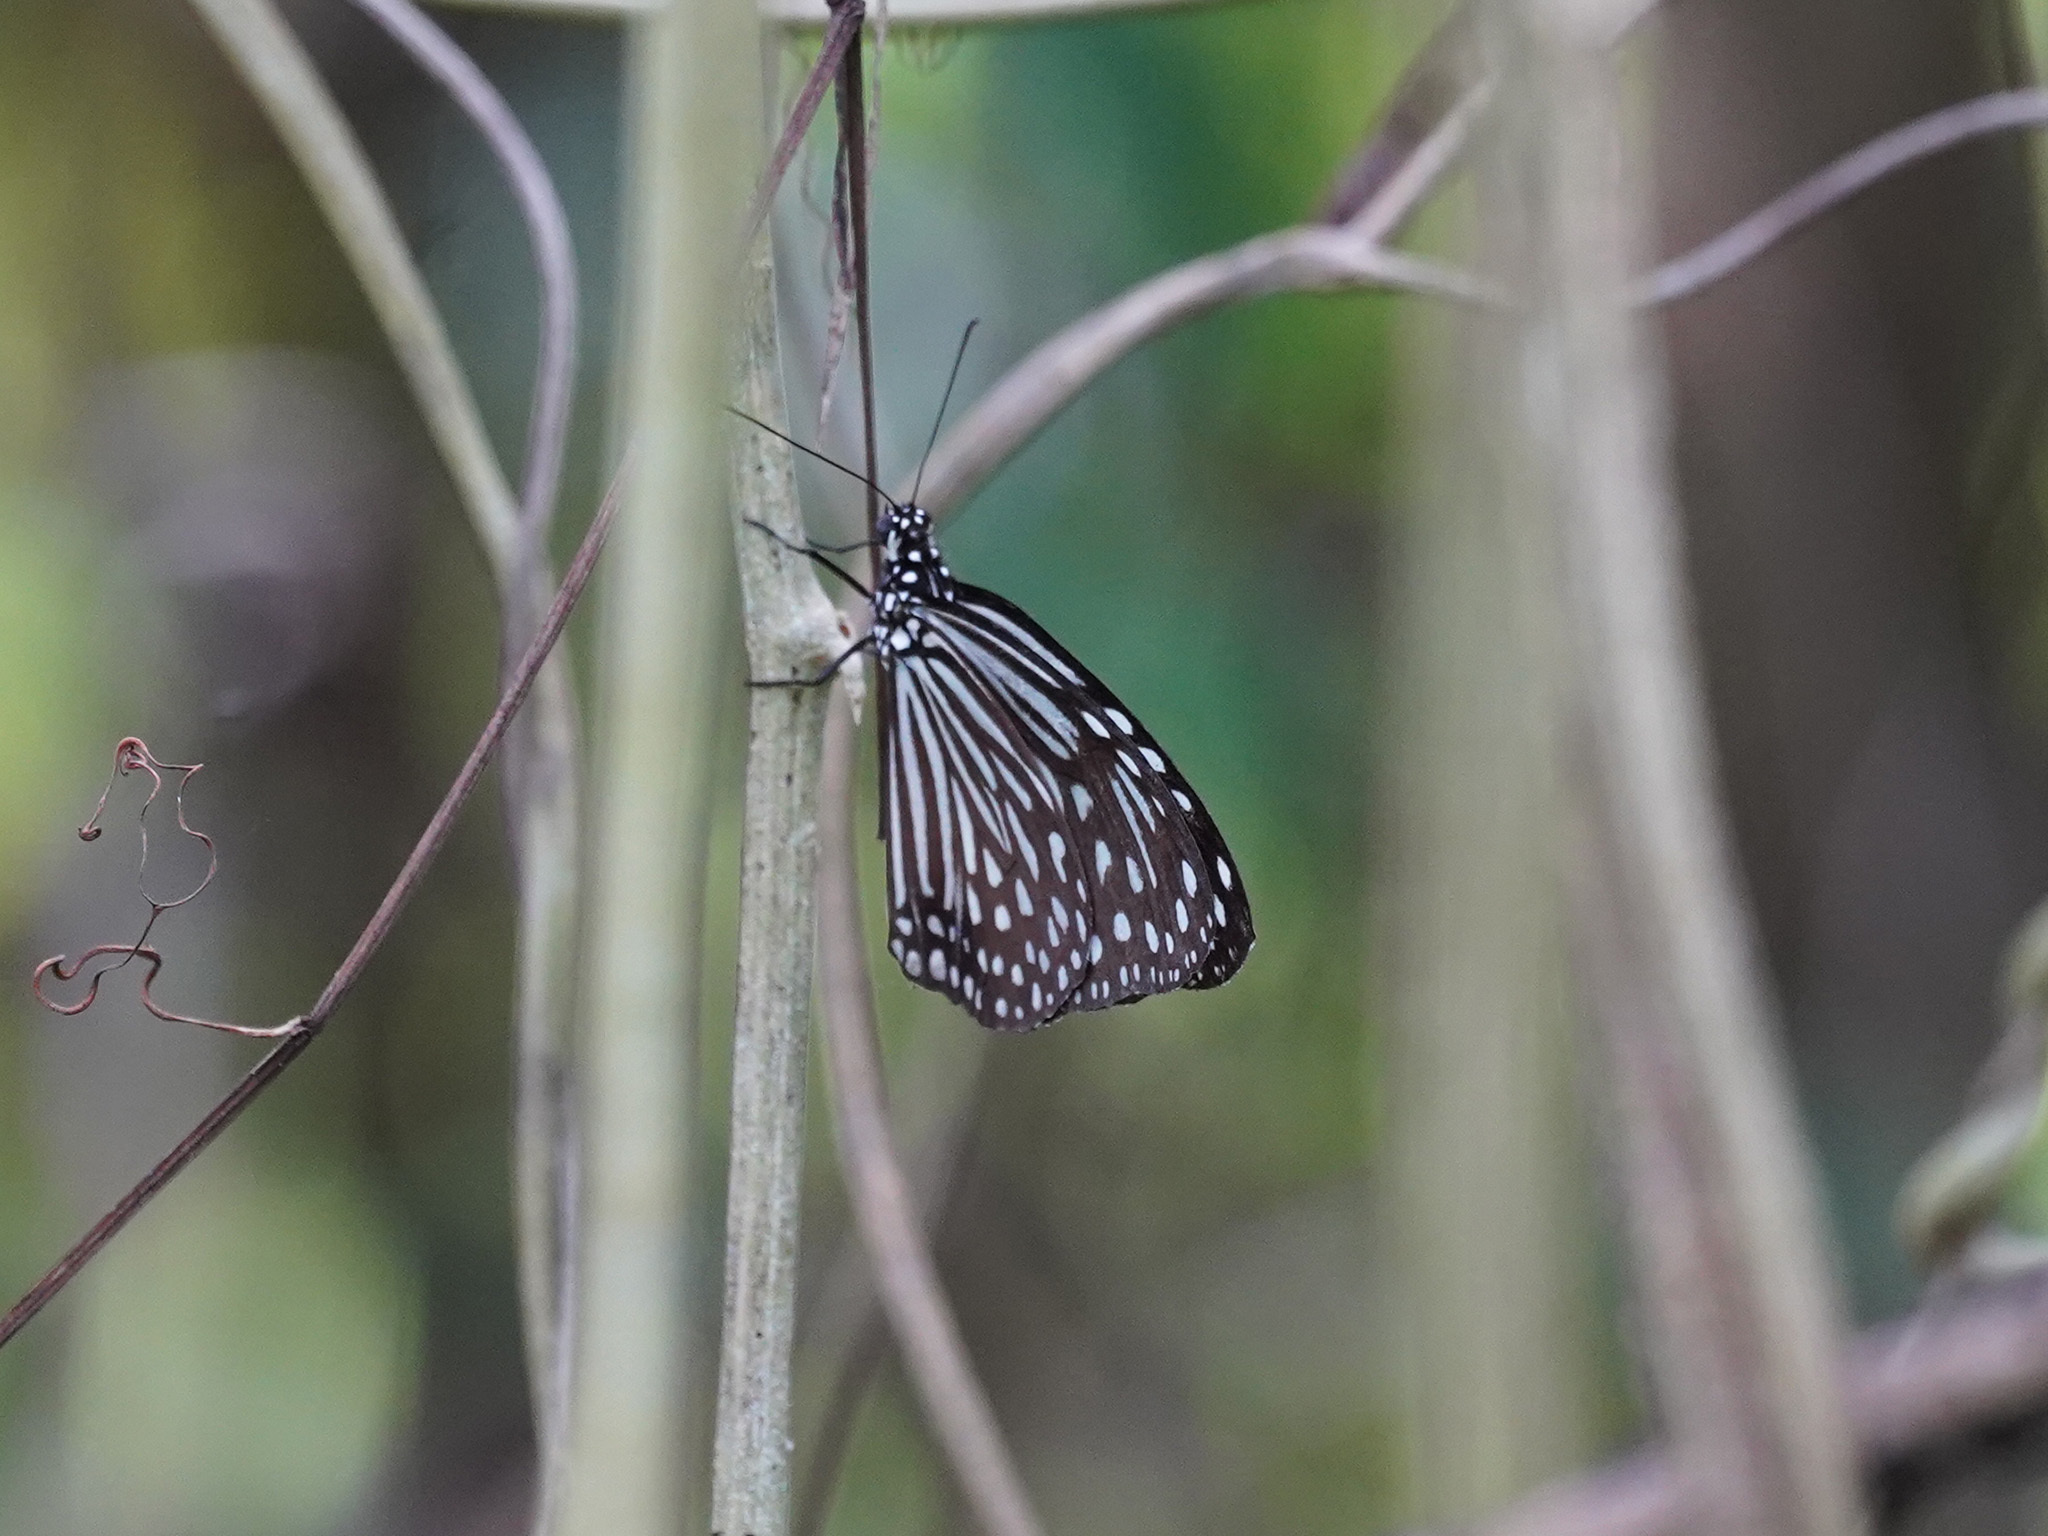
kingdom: Animalia
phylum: Arthropoda
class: Insecta
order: Lepidoptera
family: Nymphalidae
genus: Parantica
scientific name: Parantica agleoides
